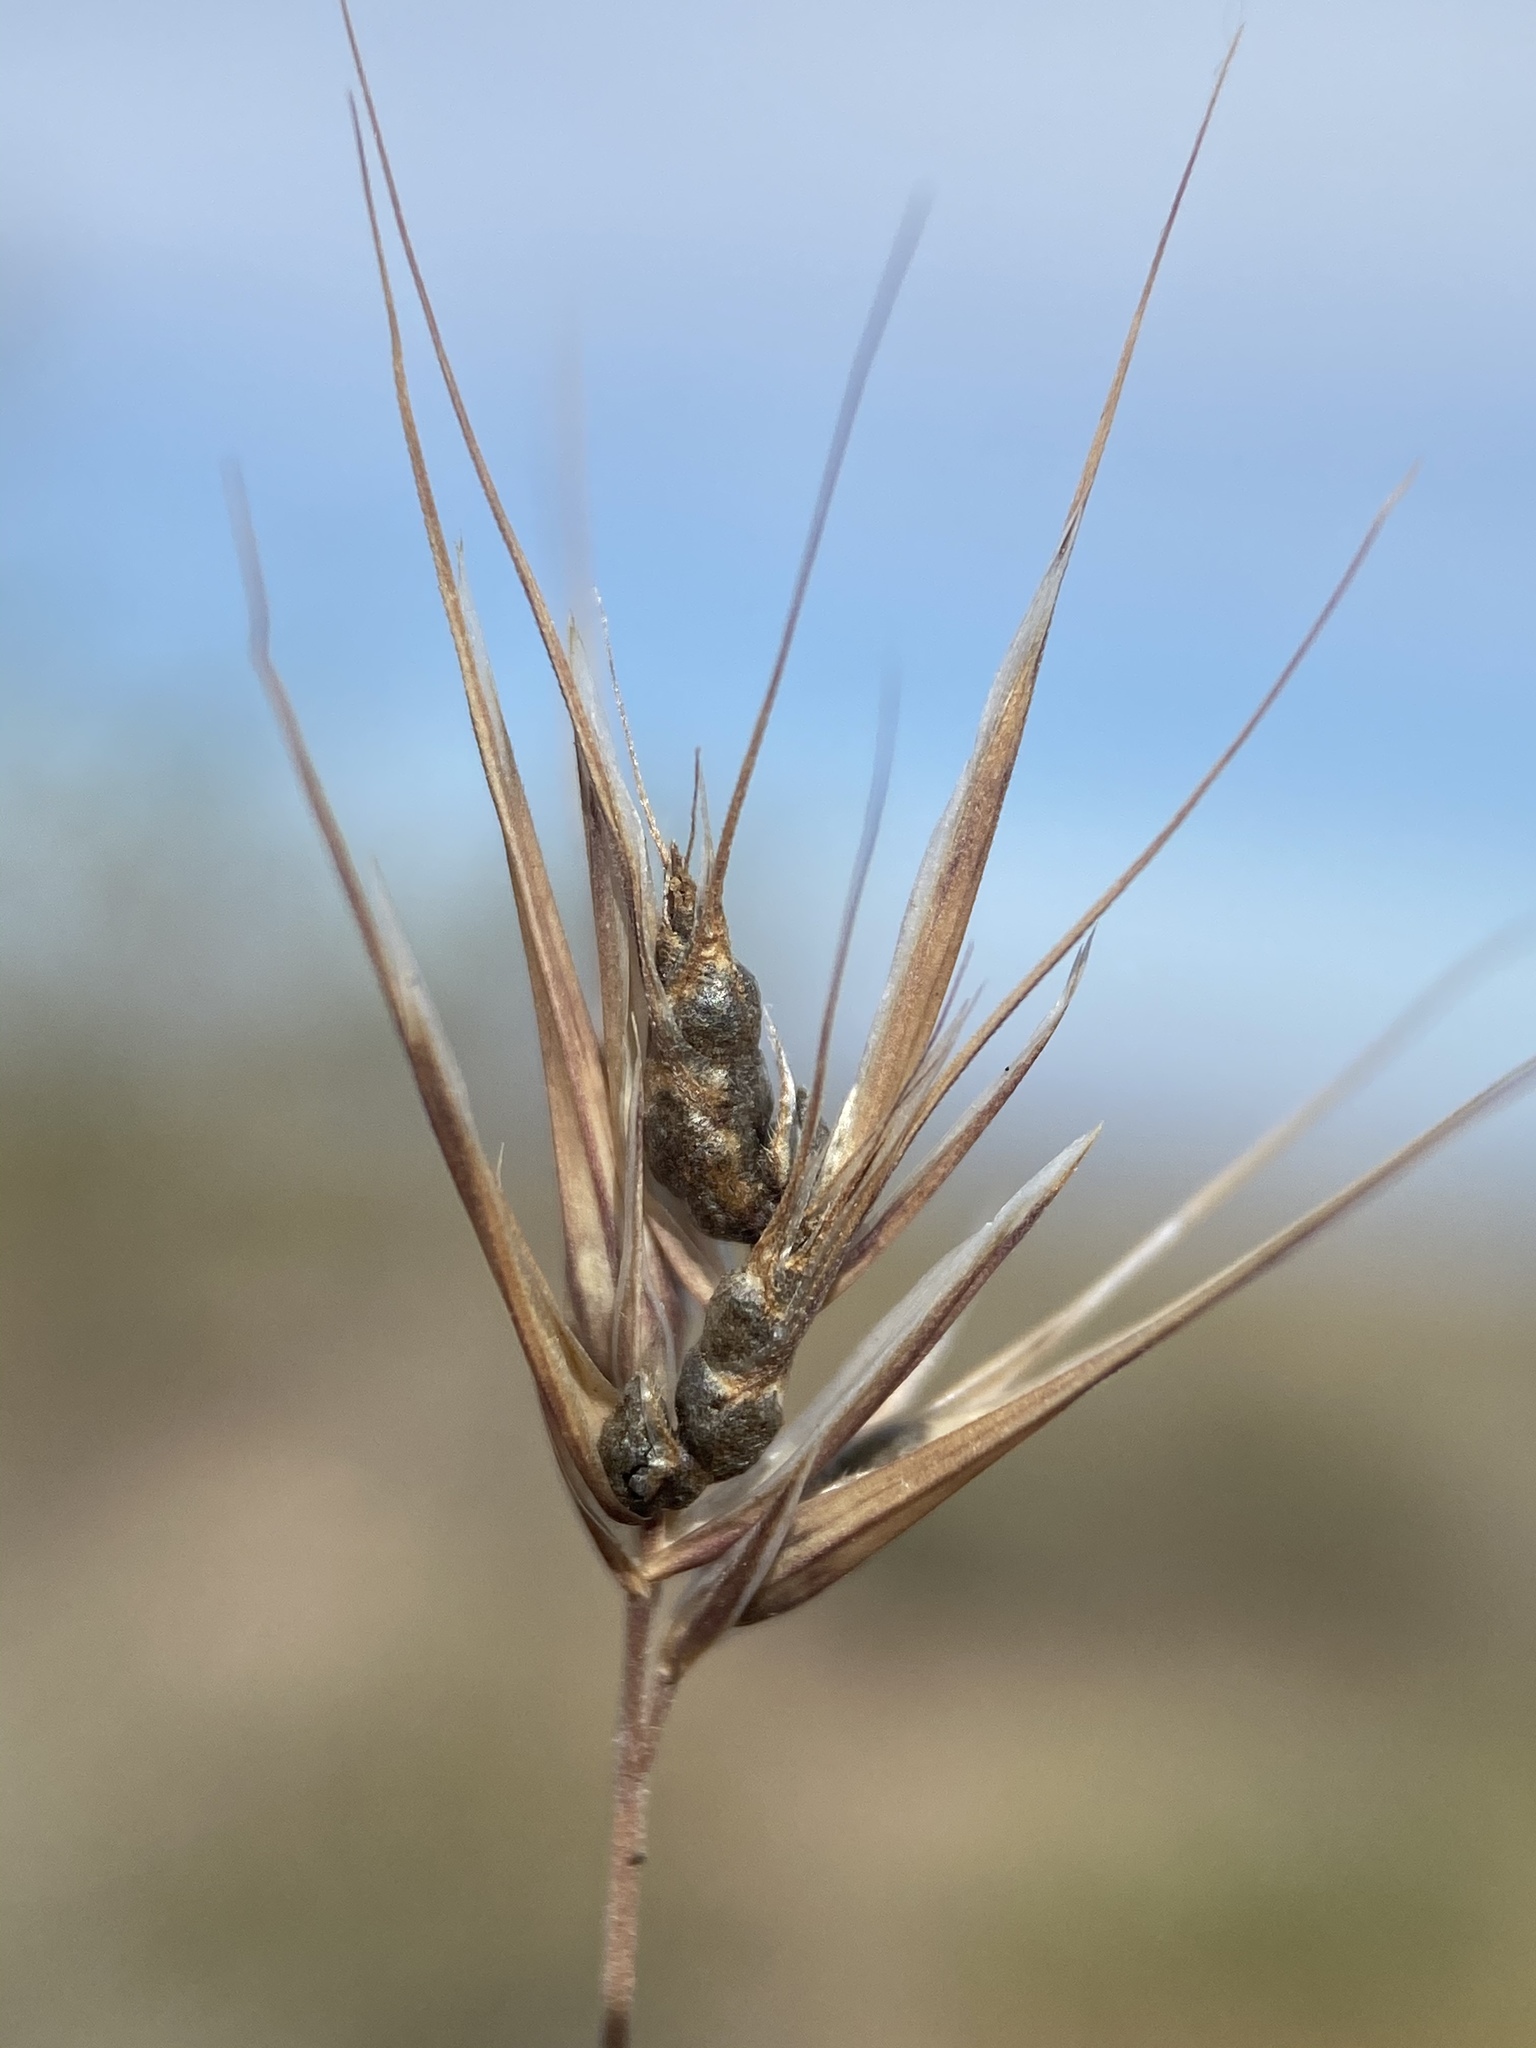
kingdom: Fungi
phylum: Basidiomycota
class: Ustilaginomycetes
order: Ustilaginales
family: Ustilaginaceae
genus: Ustilago
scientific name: Ustilago bullata
